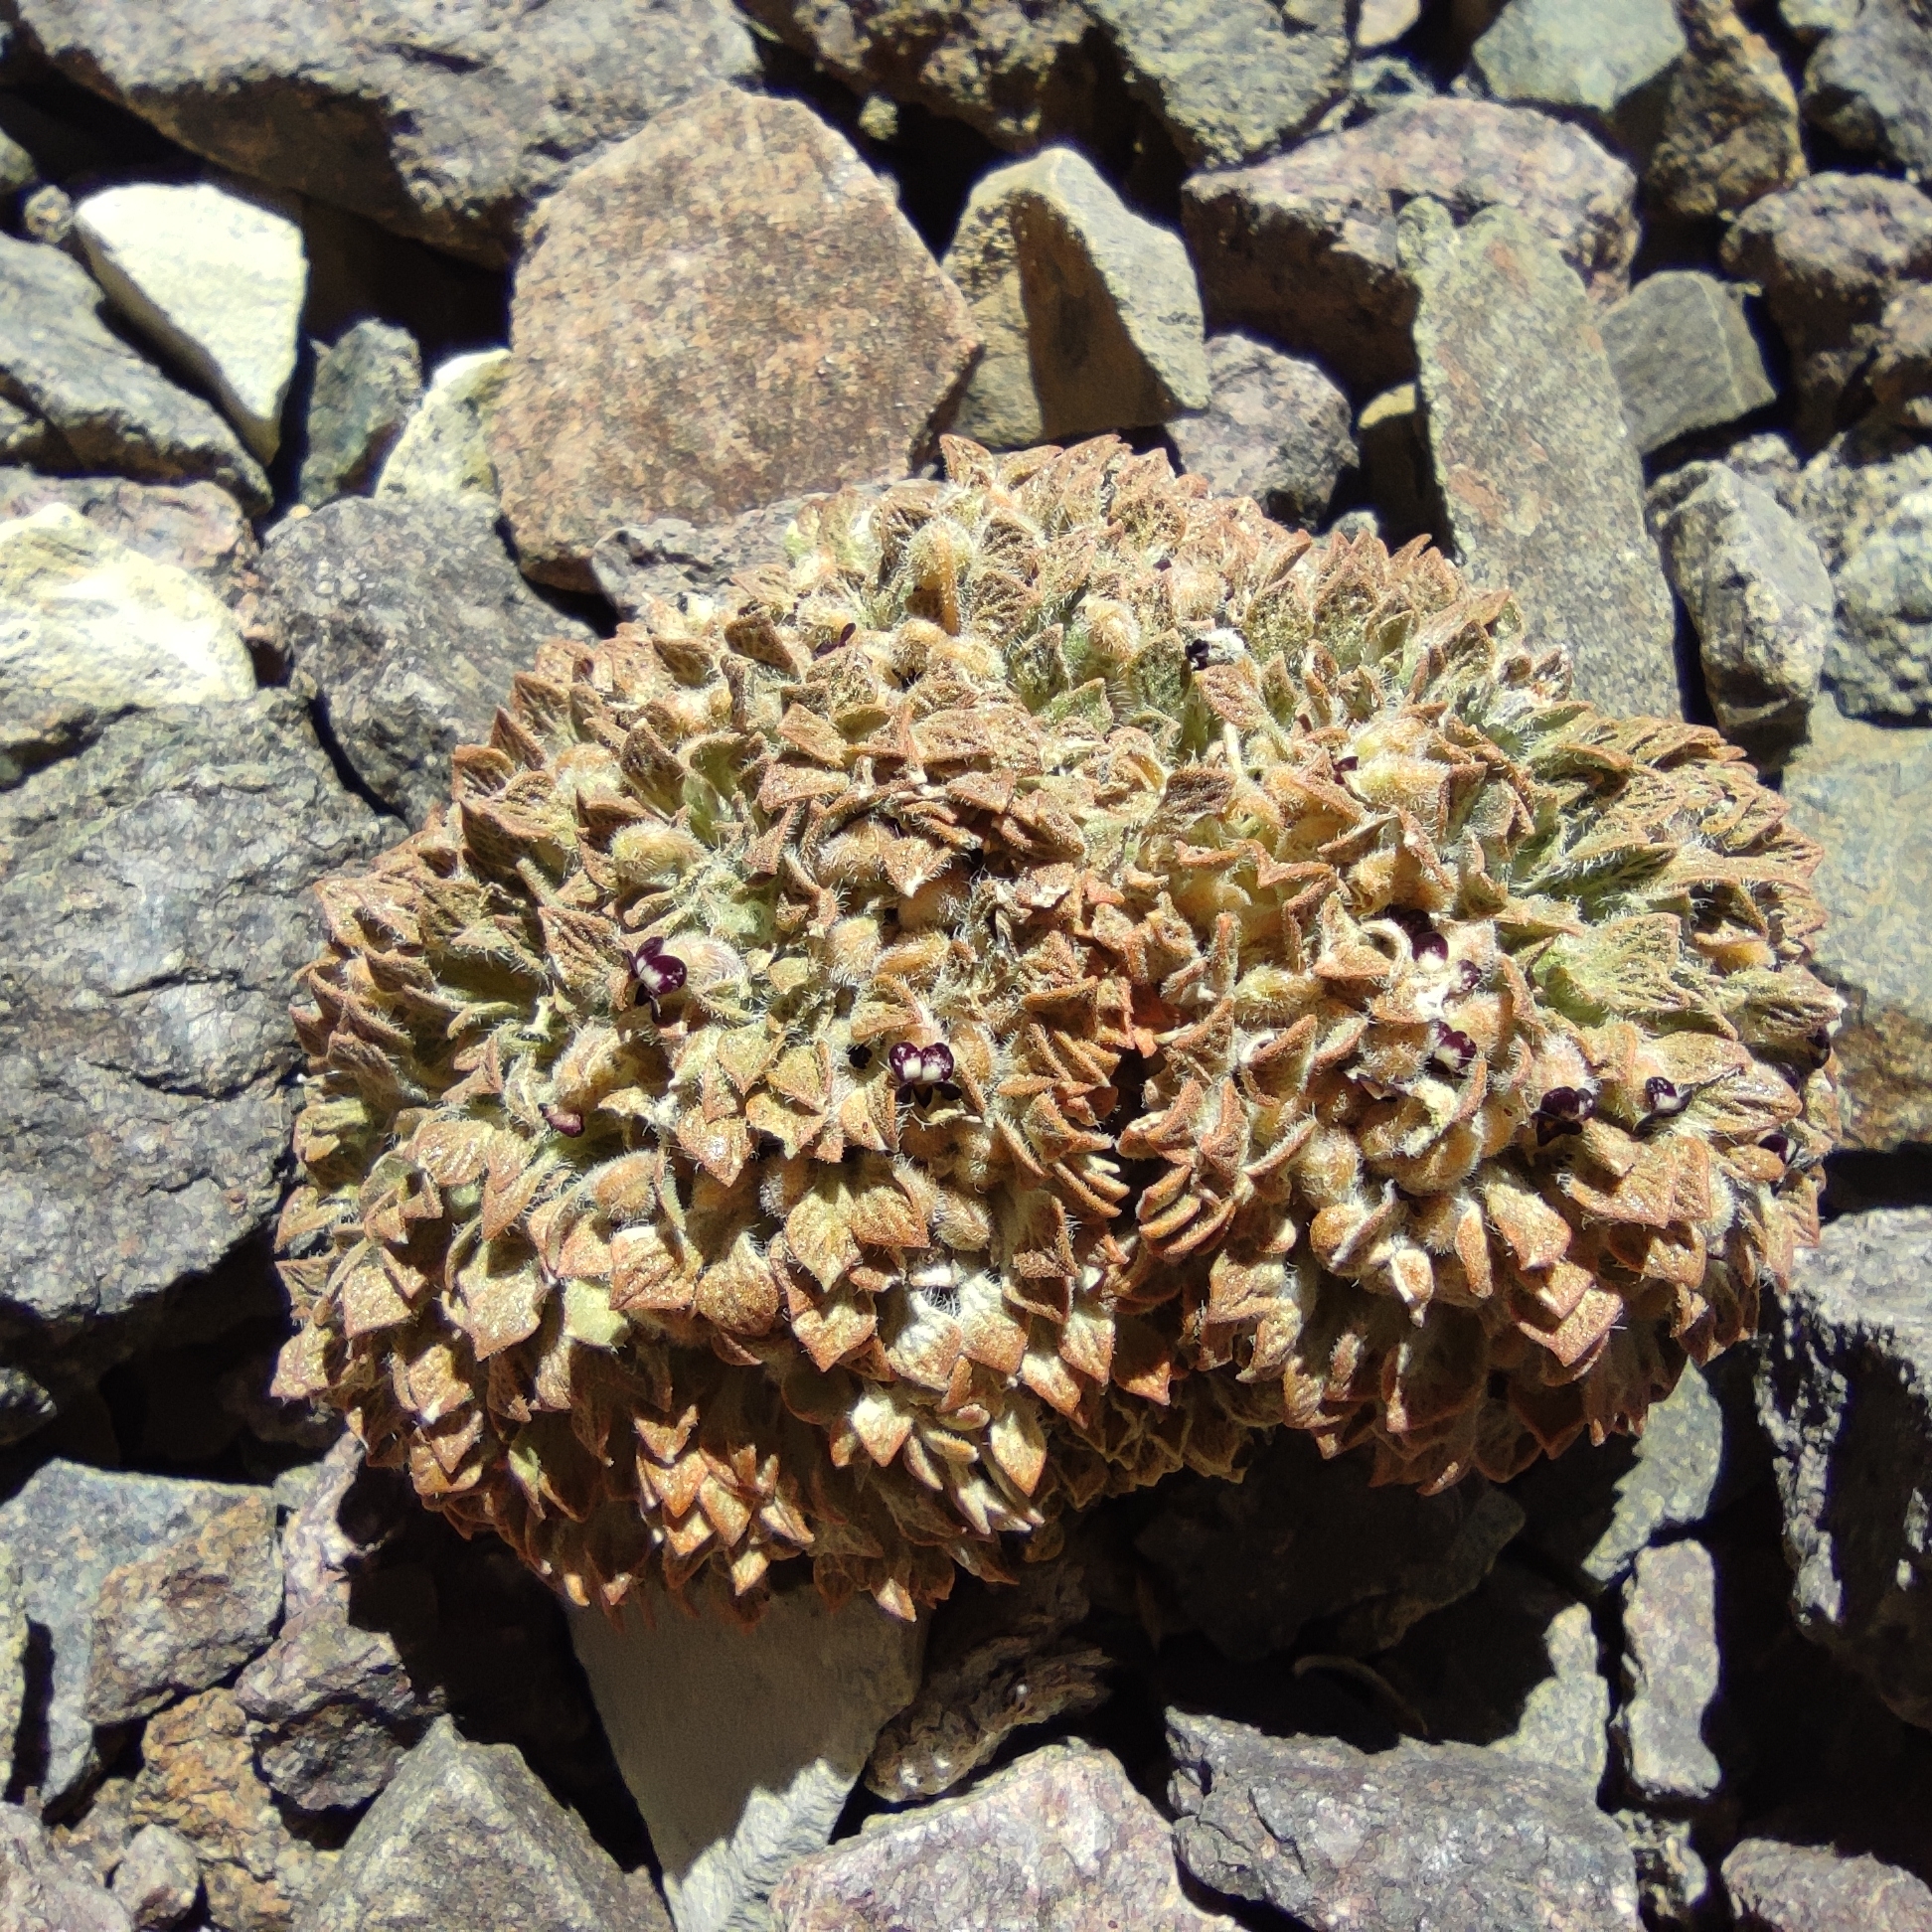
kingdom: Plantae
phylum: Tracheophyta
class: Magnoliopsida
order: Malpighiales
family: Violaceae
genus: Viola
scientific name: Viola montagnei
